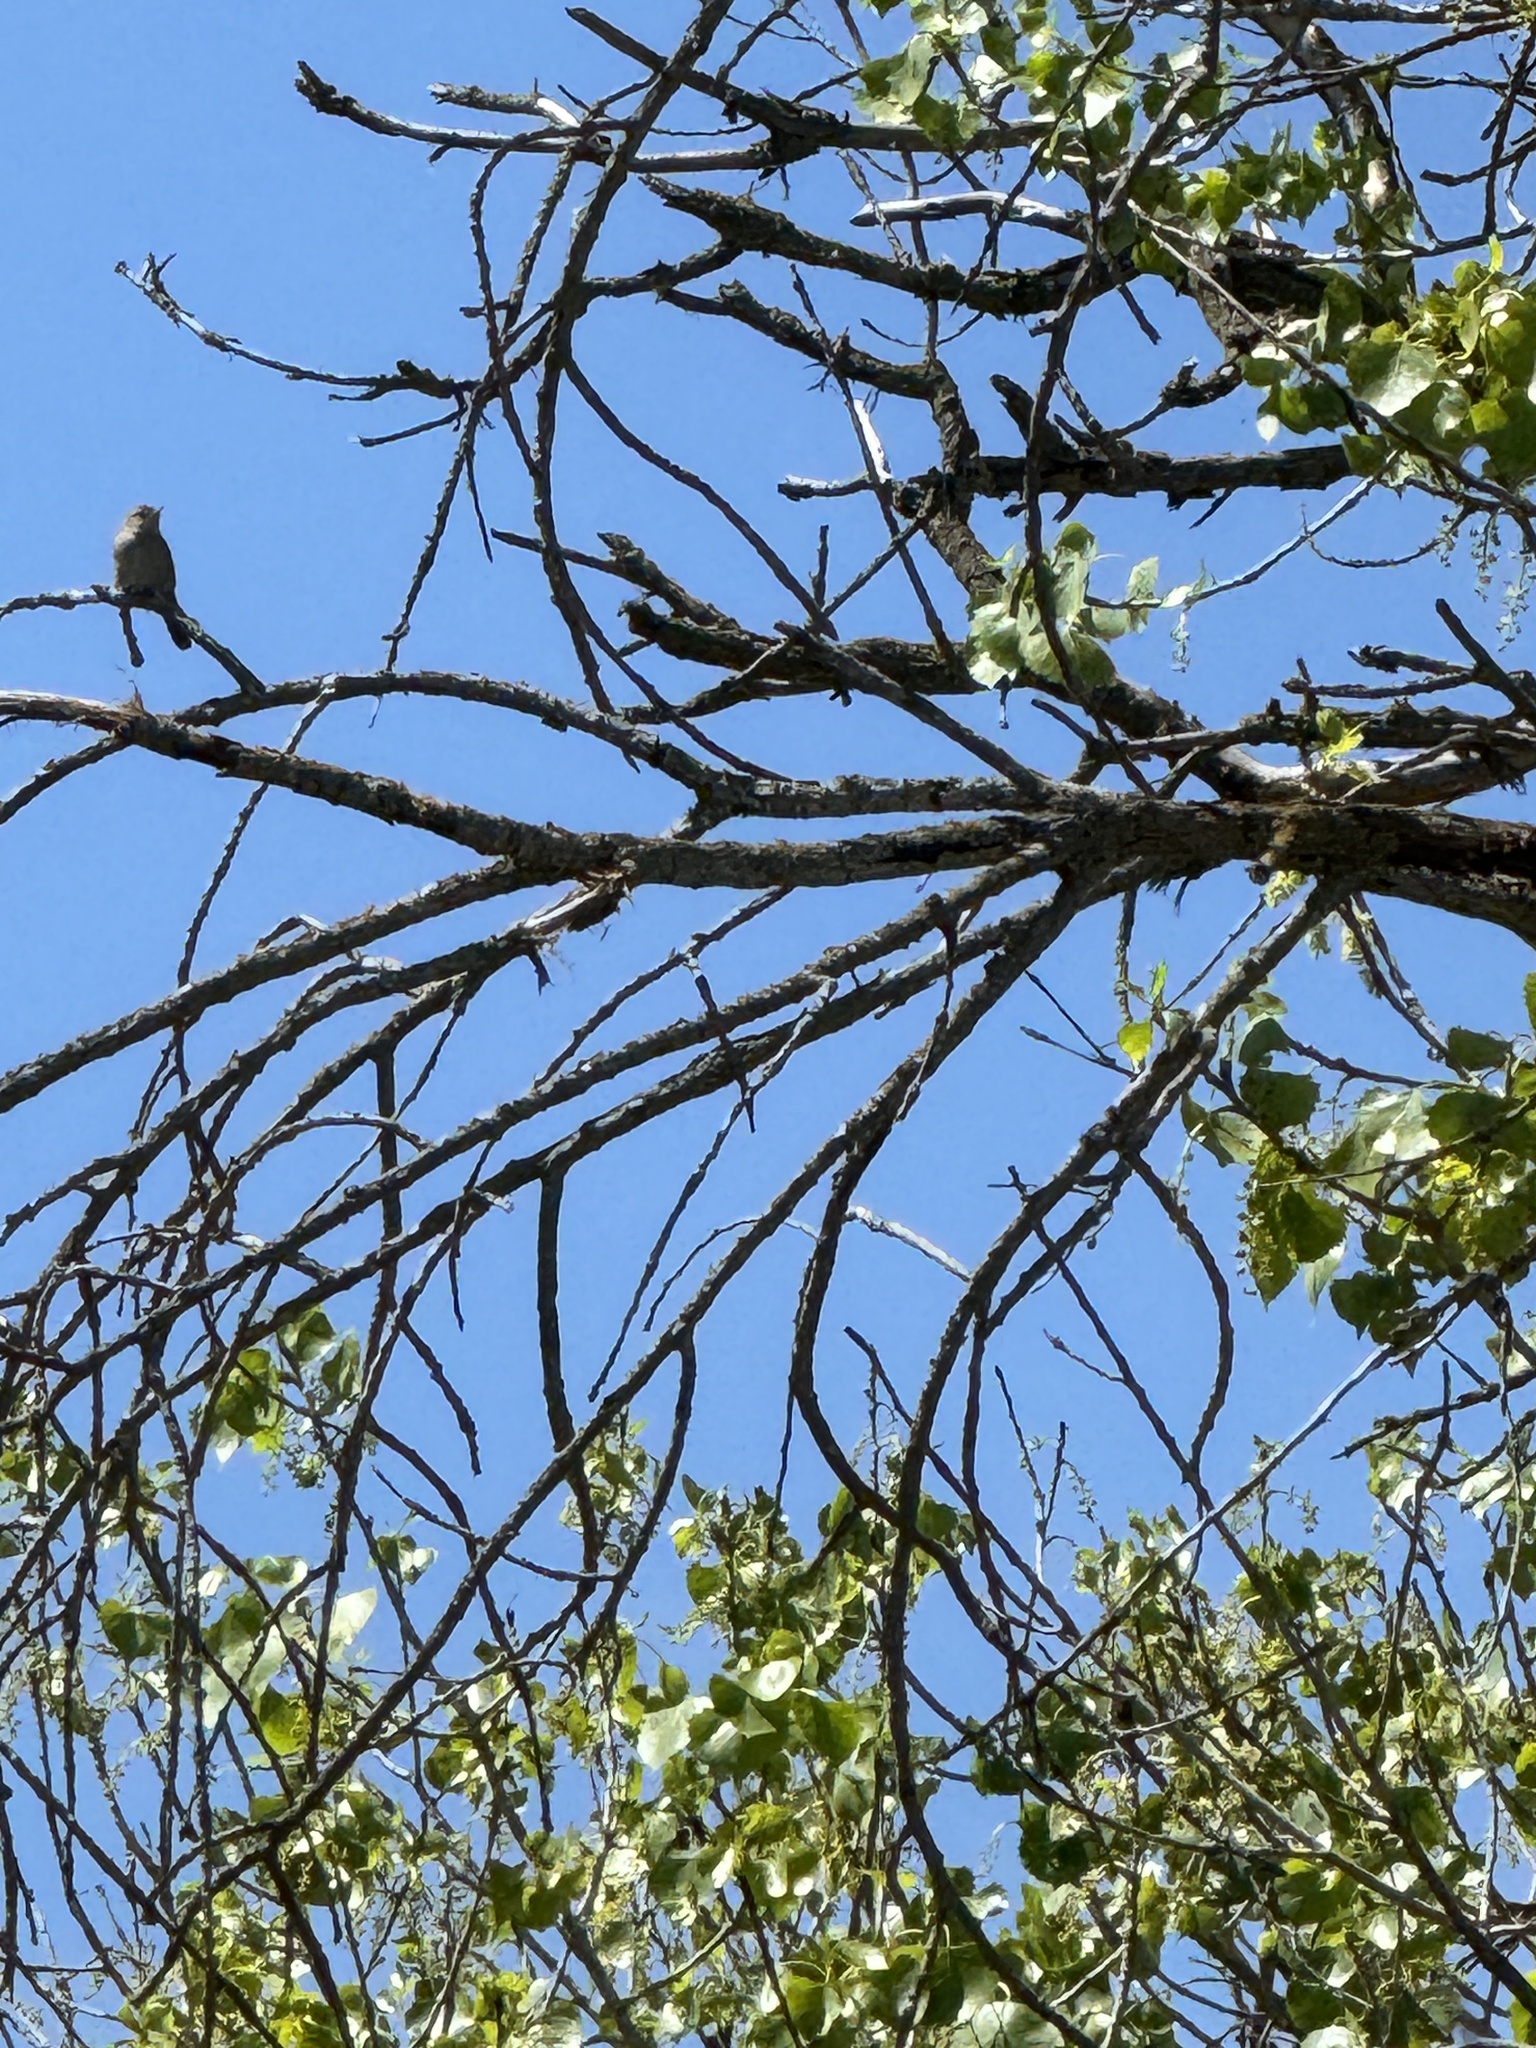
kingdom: Animalia
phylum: Chordata
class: Aves
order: Passeriformes
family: Troglodytidae
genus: Troglodytes
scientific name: Troglodytes aedon
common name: House wren
